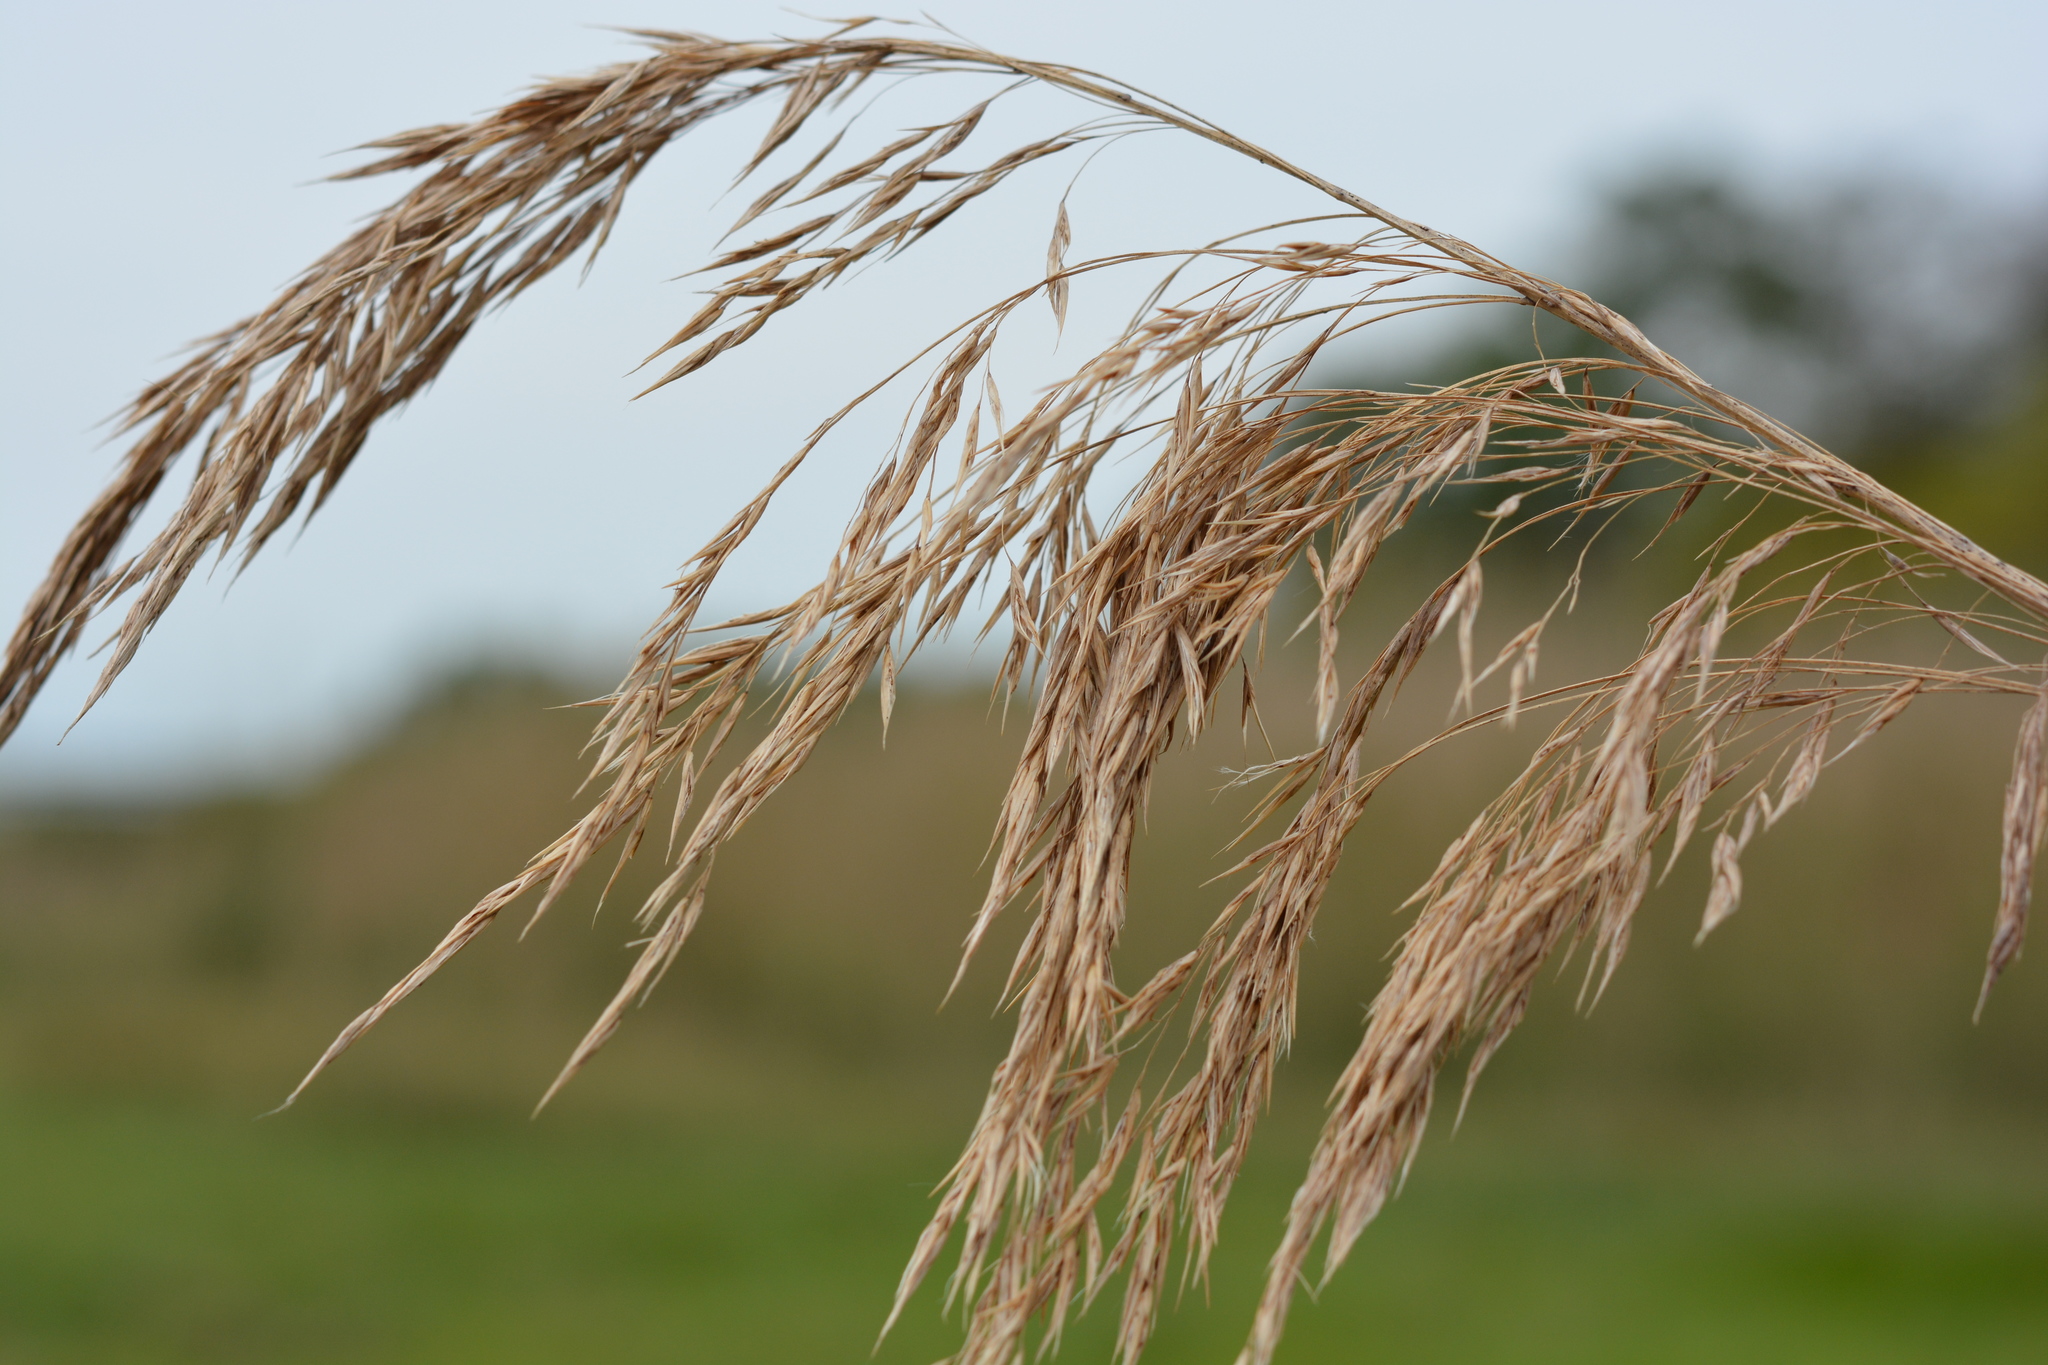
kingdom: Plantae
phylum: Tracheophyta
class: Liliopsida
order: Poales
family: Poaceae
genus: Phragmites
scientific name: Phragmites australis
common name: Common reed
